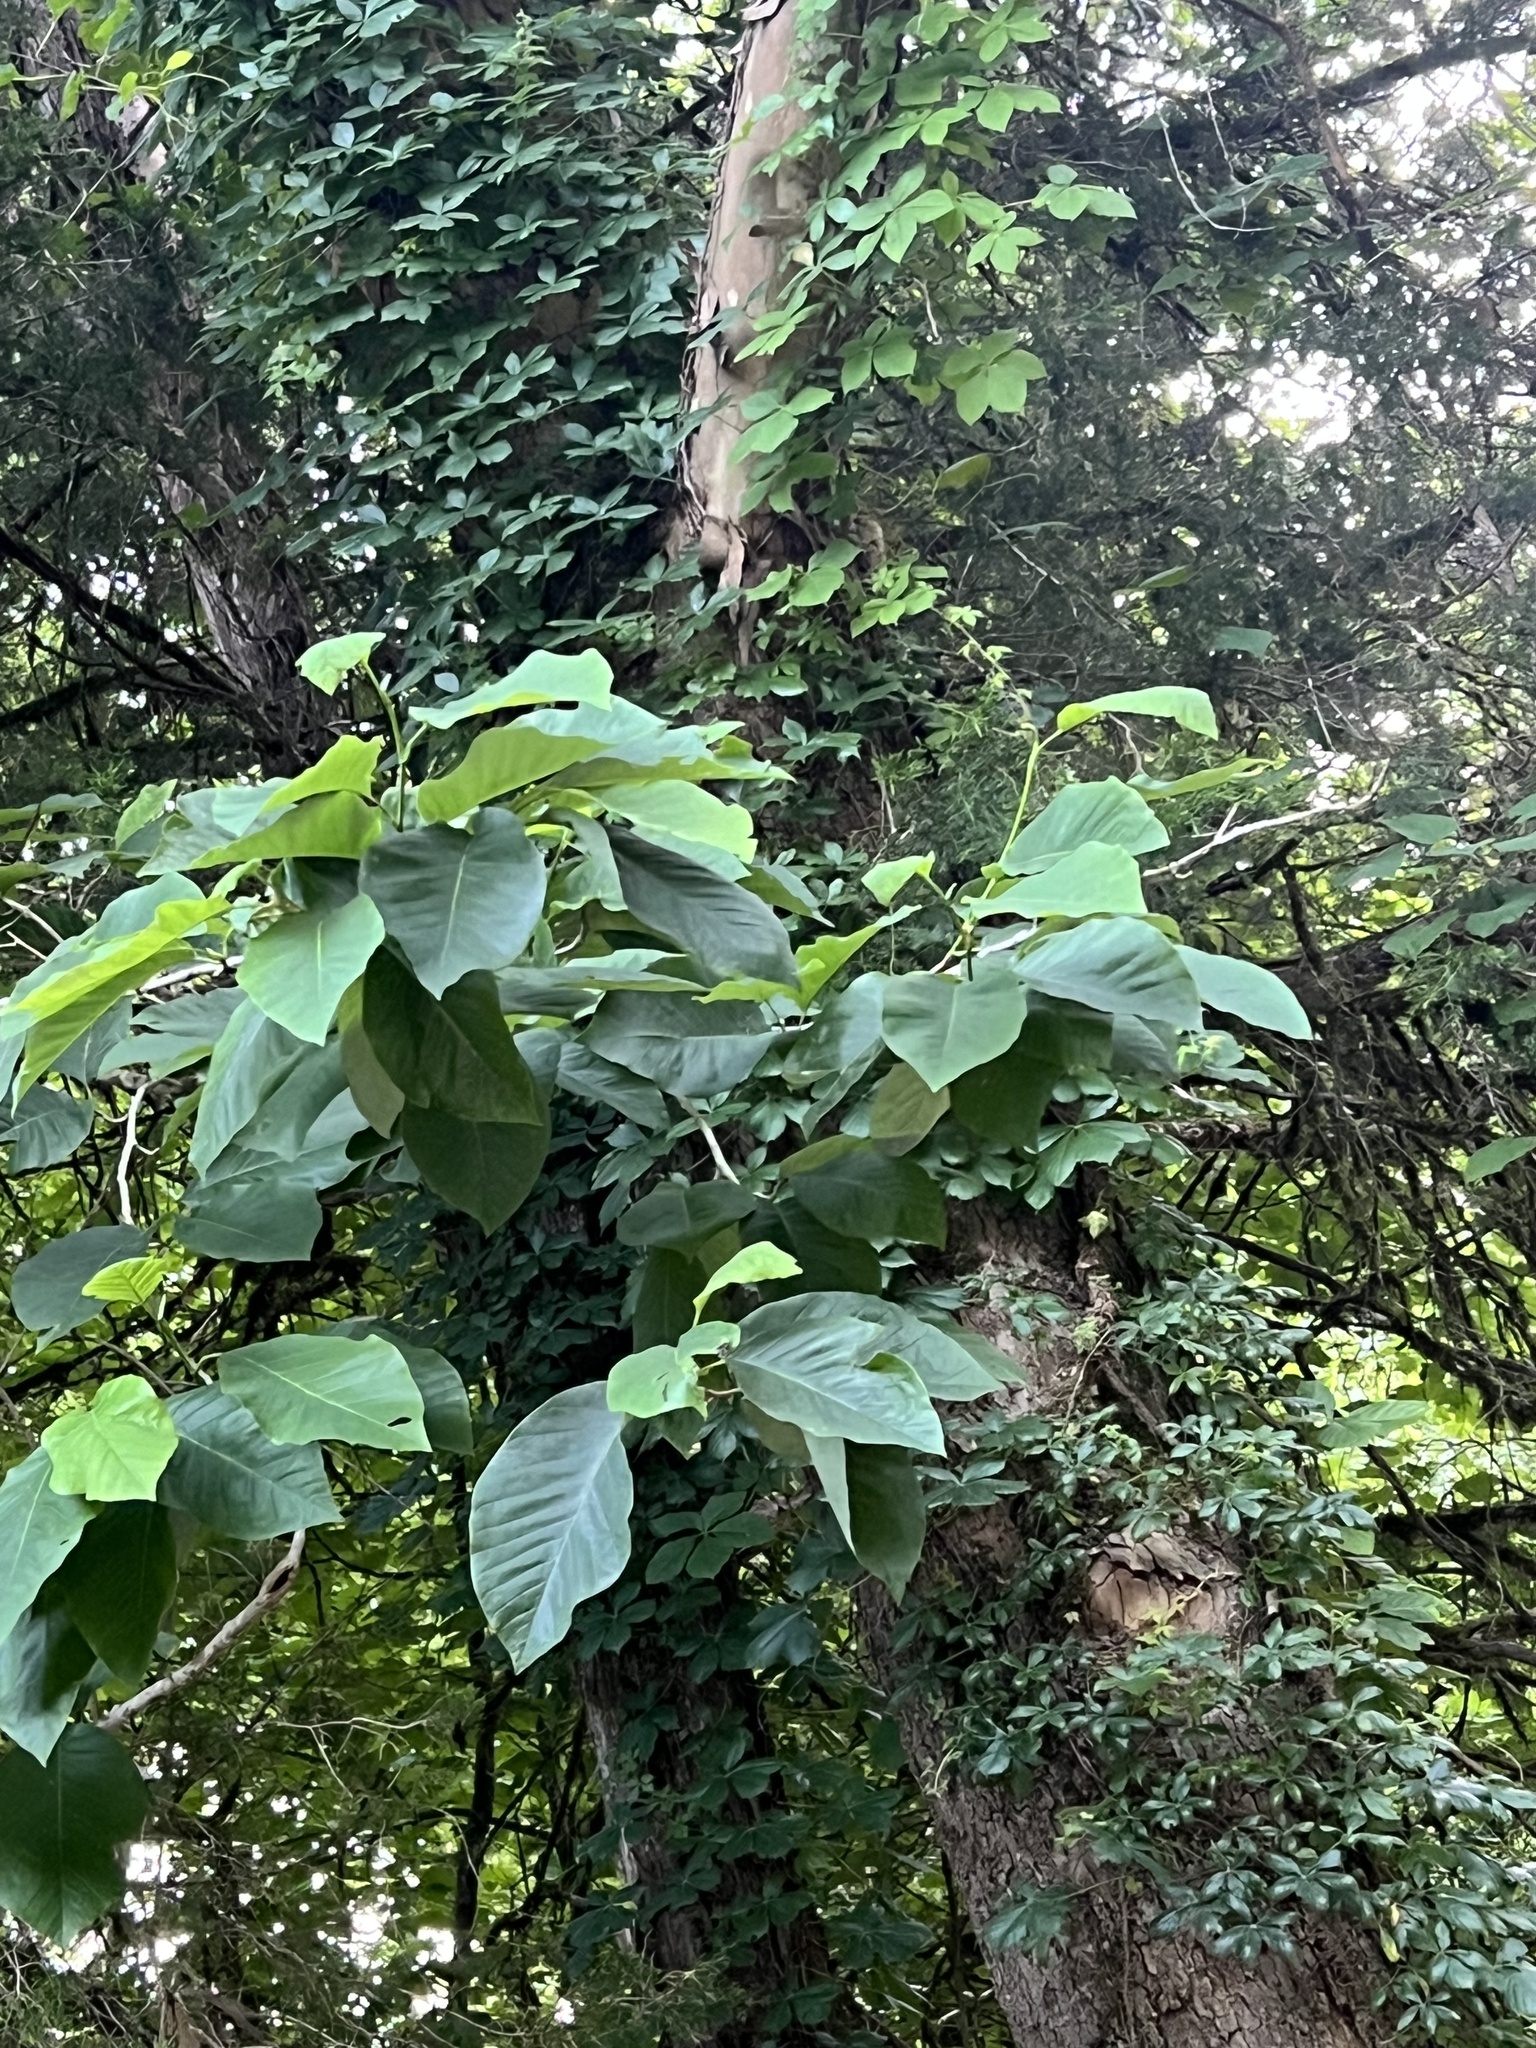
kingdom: Plantae
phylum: Tracheophyta
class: Magnoliopsida
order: Magnoliales
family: Magnoliaceae
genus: Magnolia
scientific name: Magnolia acuminata
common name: Cucumber magnolia
